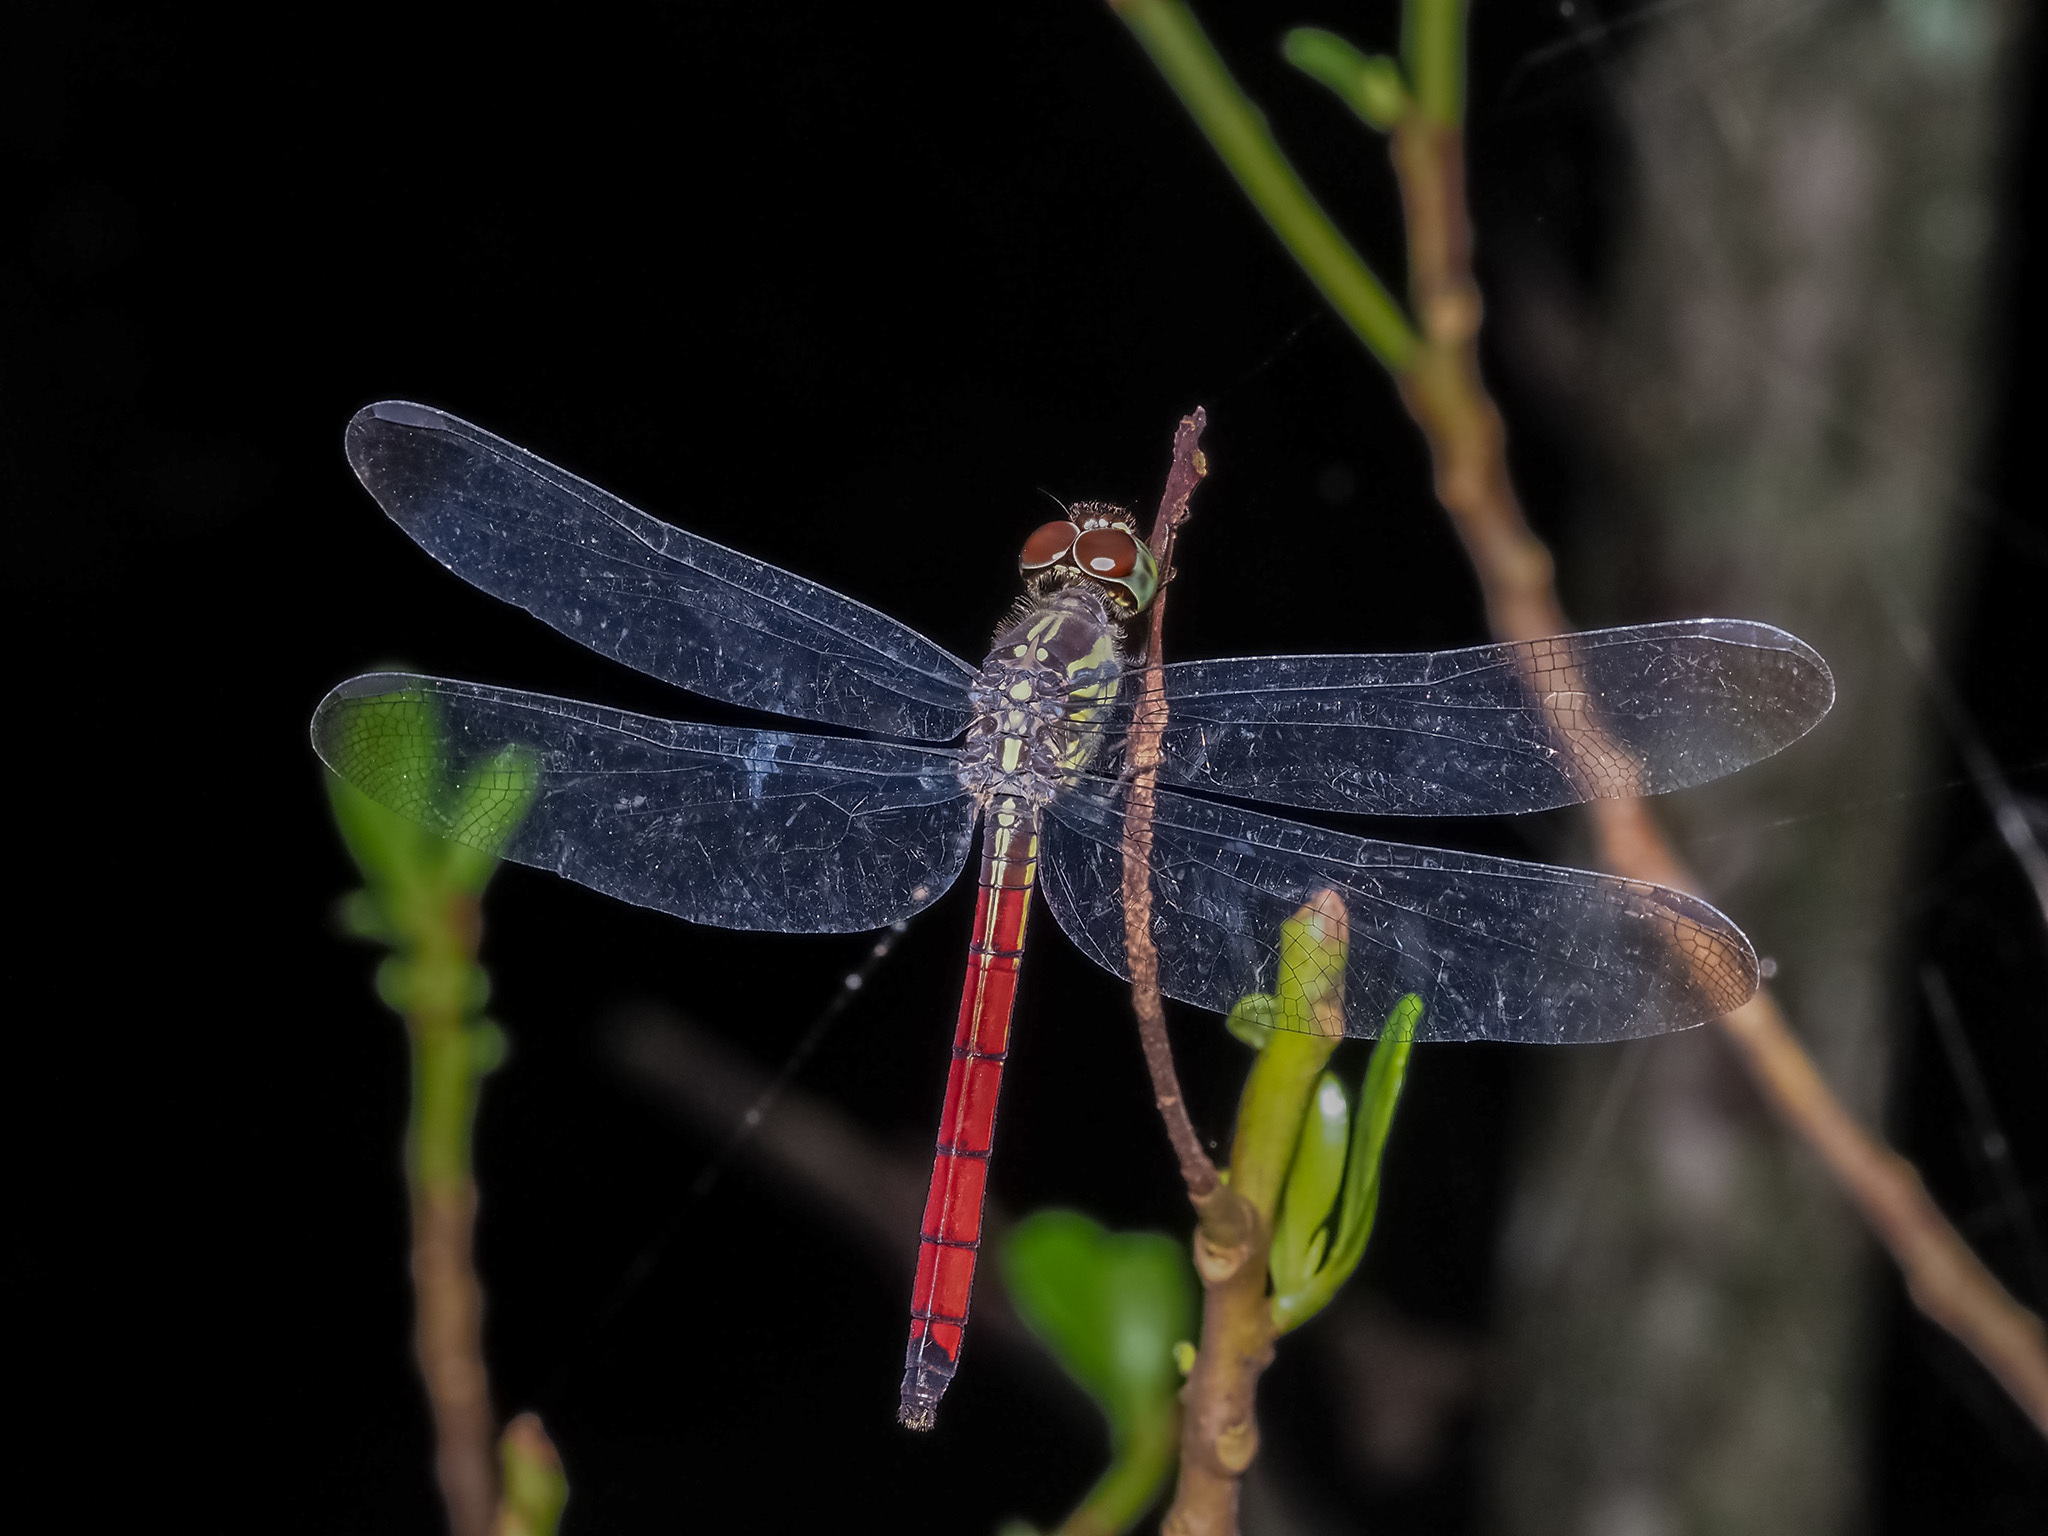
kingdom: Animalia
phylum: Arthropoda
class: Insecta
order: Odonata
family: Libellulidae
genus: Lathrecista
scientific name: Lathrecista asiatica
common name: Scarlet grenadier
